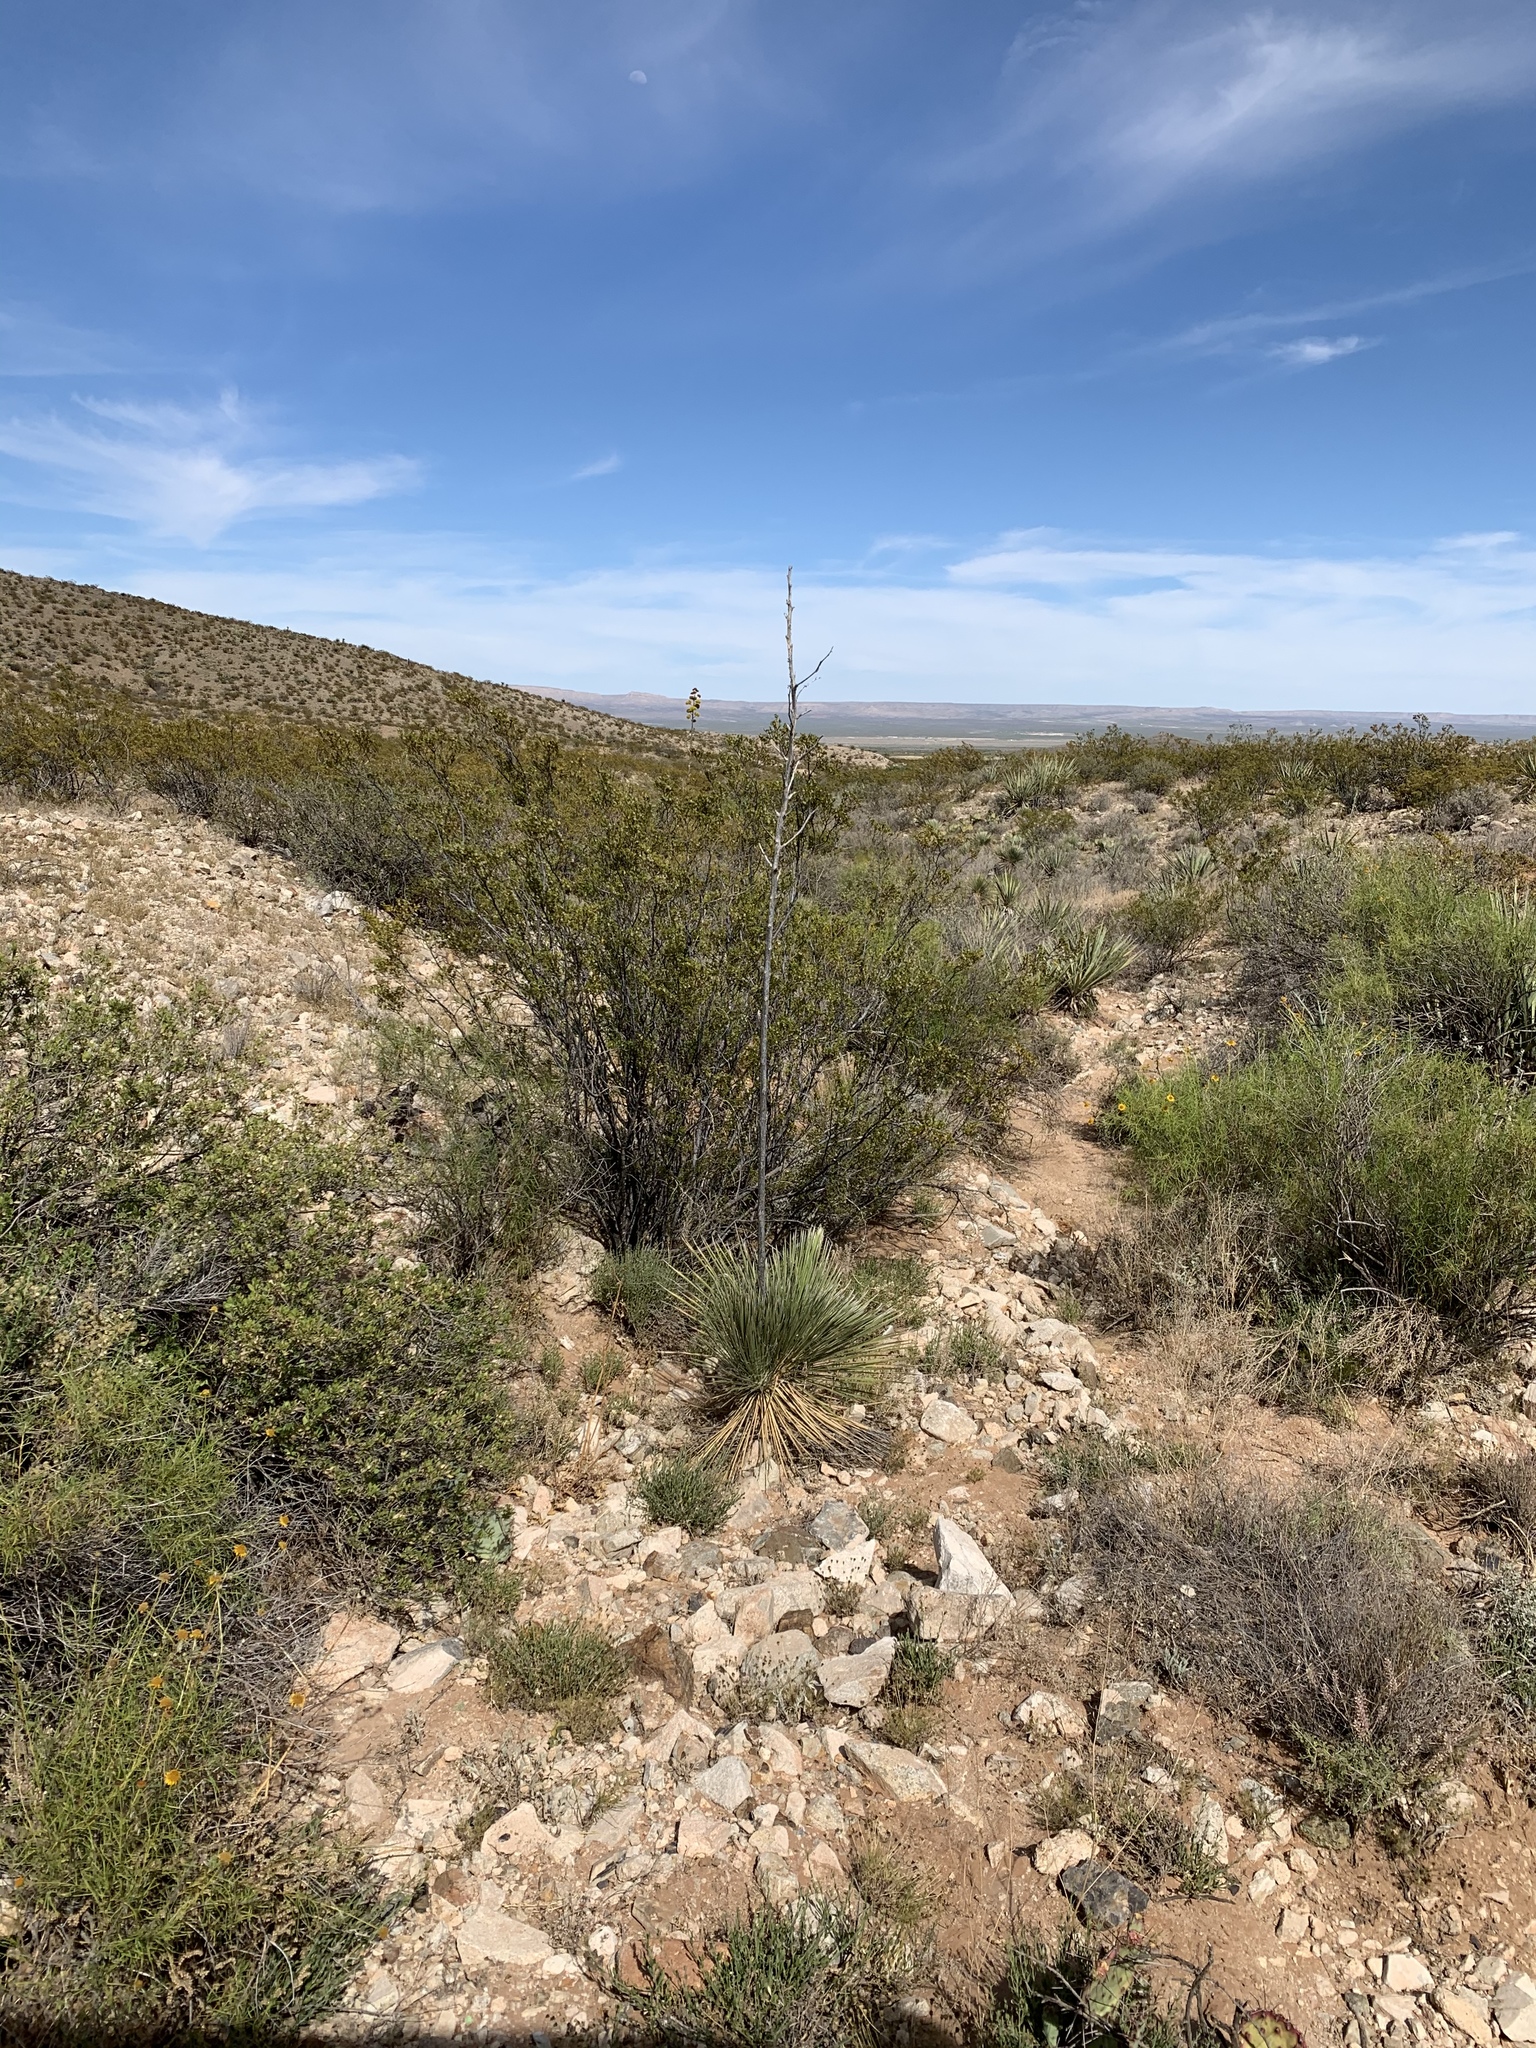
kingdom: Plantae
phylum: Tracheophyta
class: Liliopsida
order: Asparagales
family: Asparagaceae
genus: Yucca
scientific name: Yucca elata
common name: Palmella
